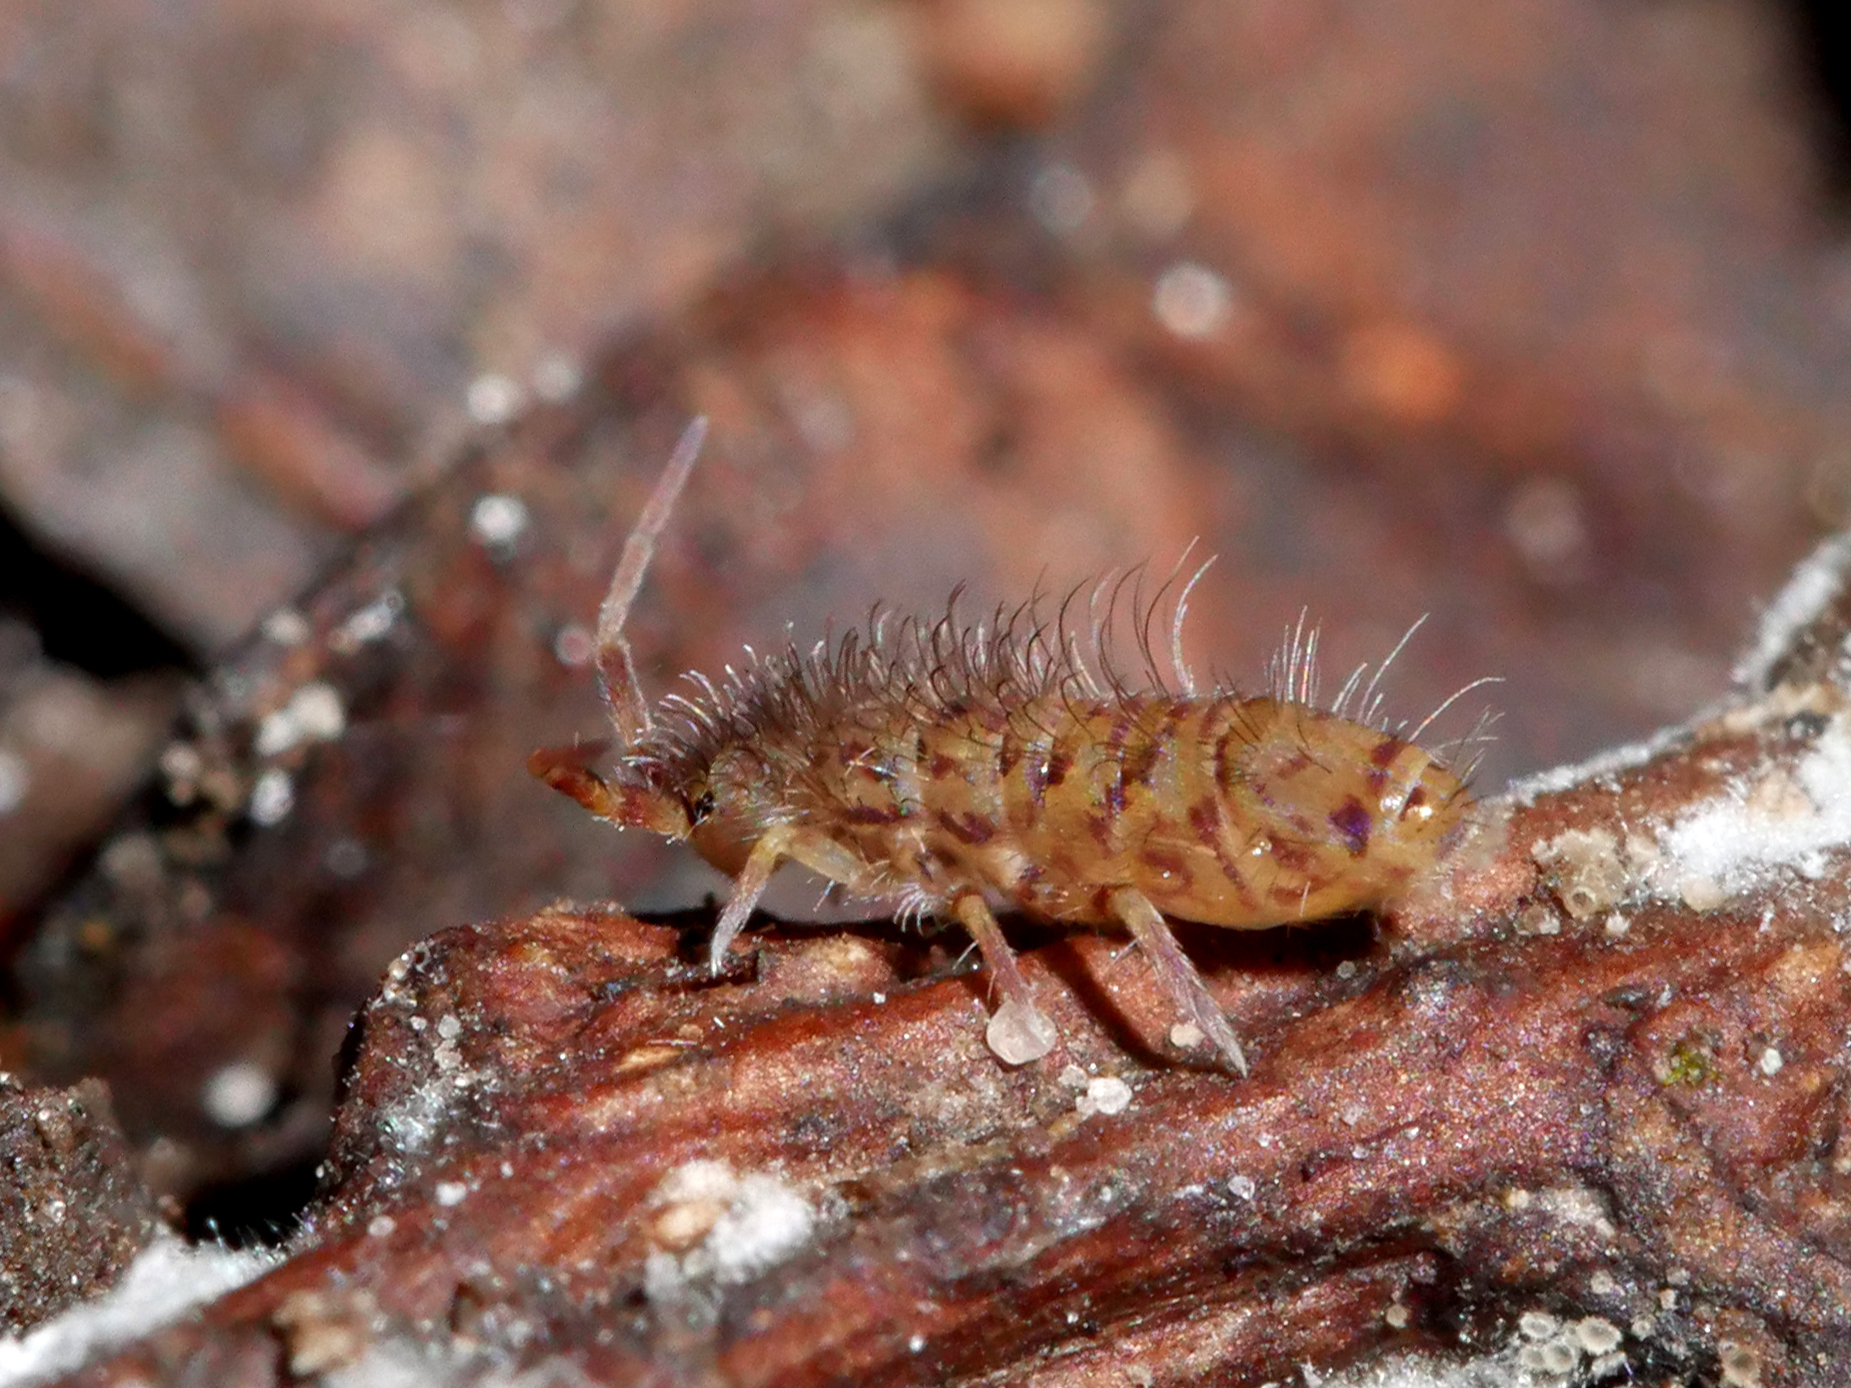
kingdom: Animalia
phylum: Arthropoda
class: Collembola
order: Entomobryomorpha
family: Orchesellidae
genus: Orchesella
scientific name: Orchesella villosa
